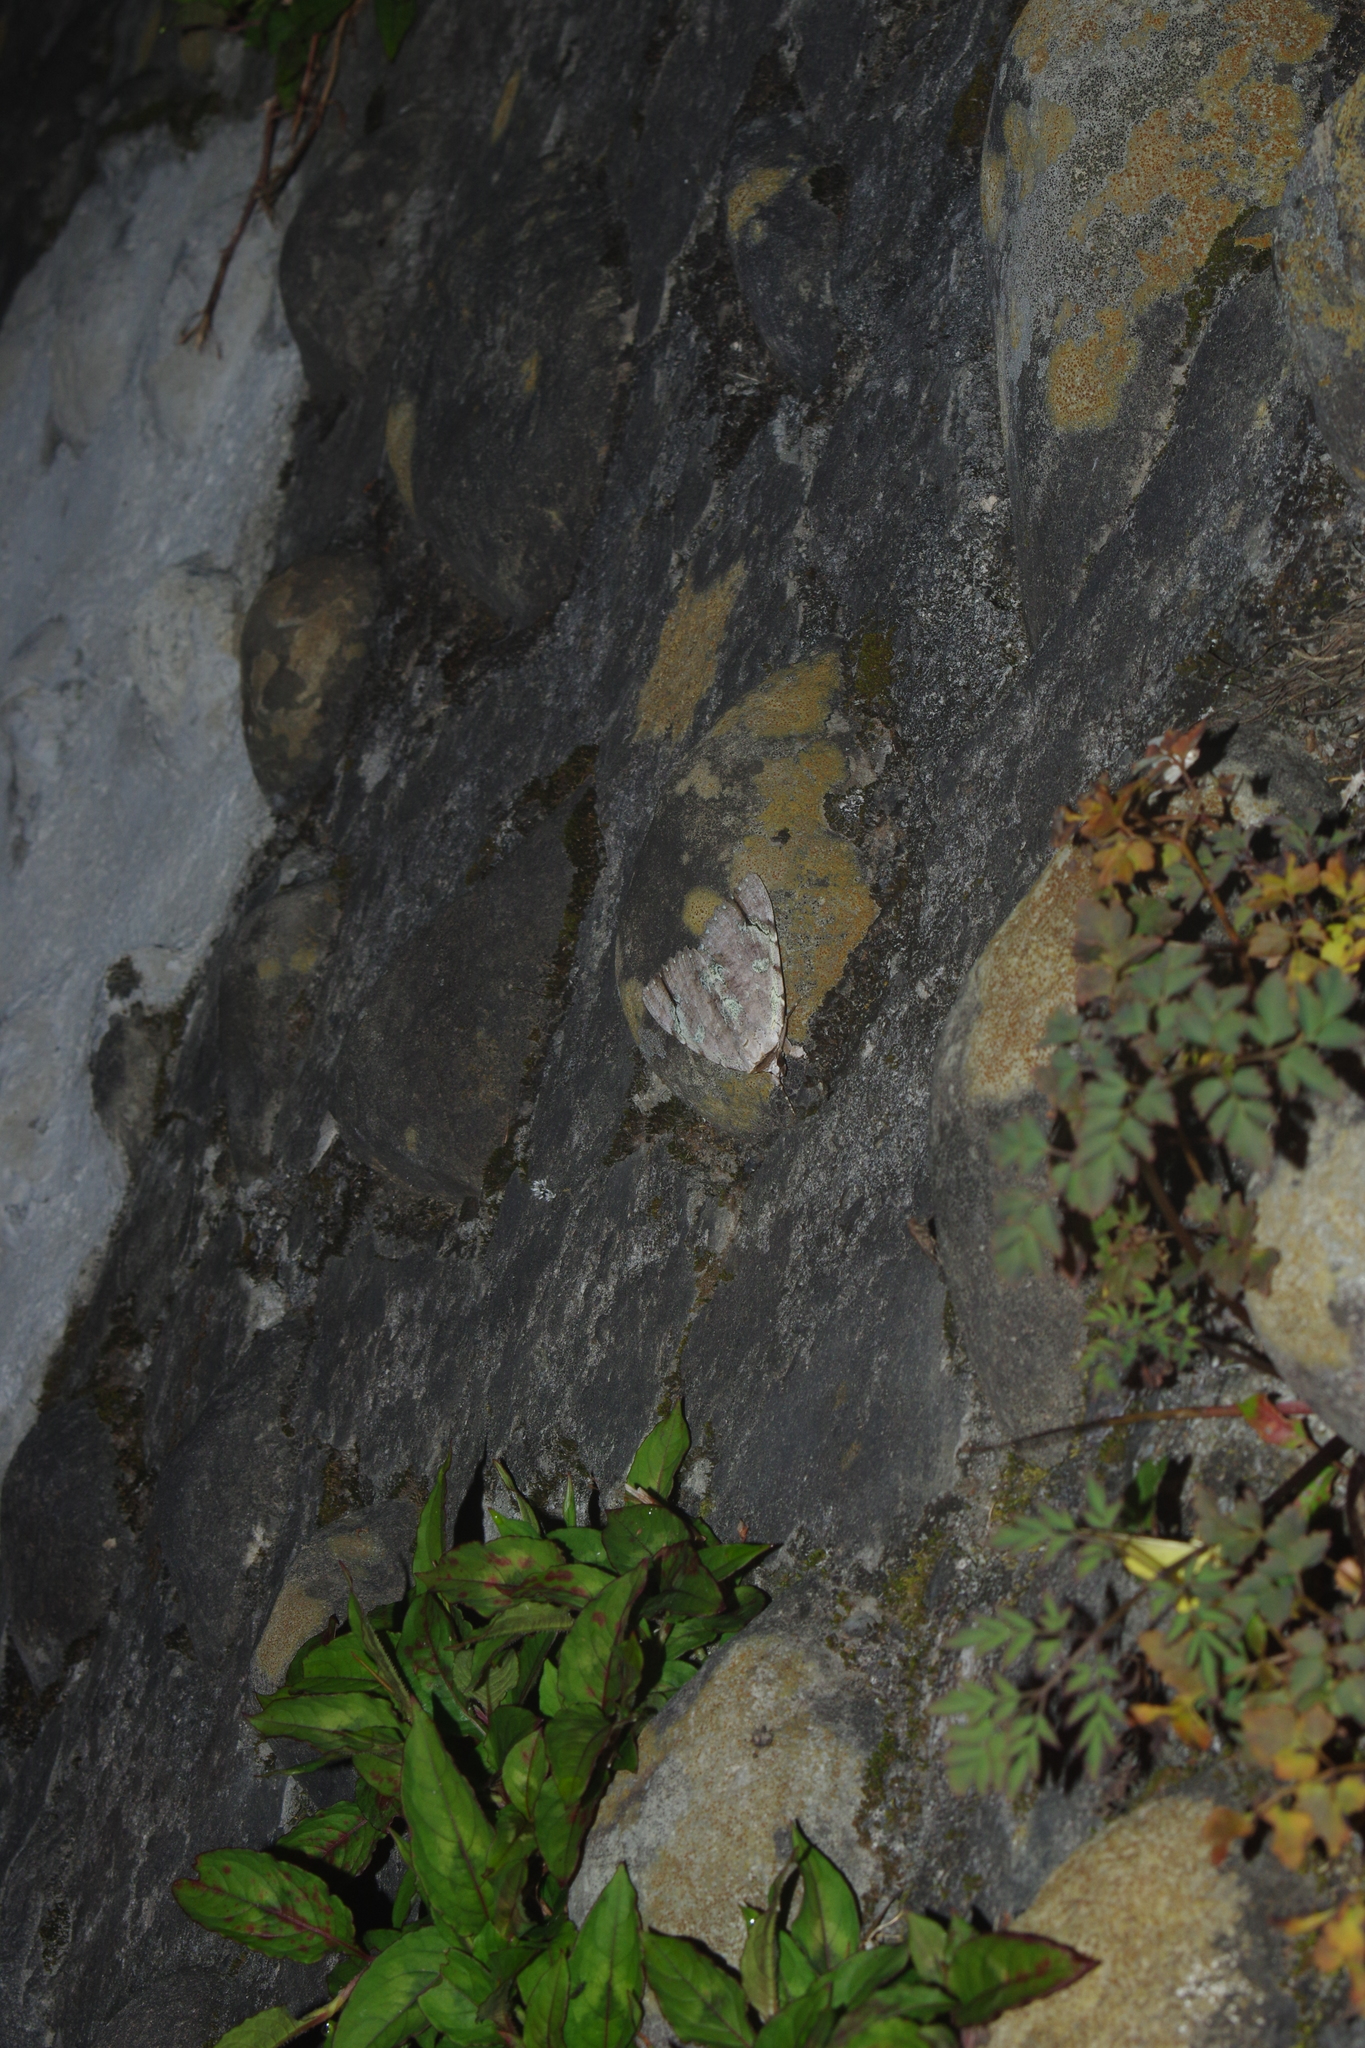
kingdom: Animalia
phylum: Arthropoda
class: Insecta
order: Lepidoptera
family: Erebidae
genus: Catocala
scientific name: Catocala nivea
